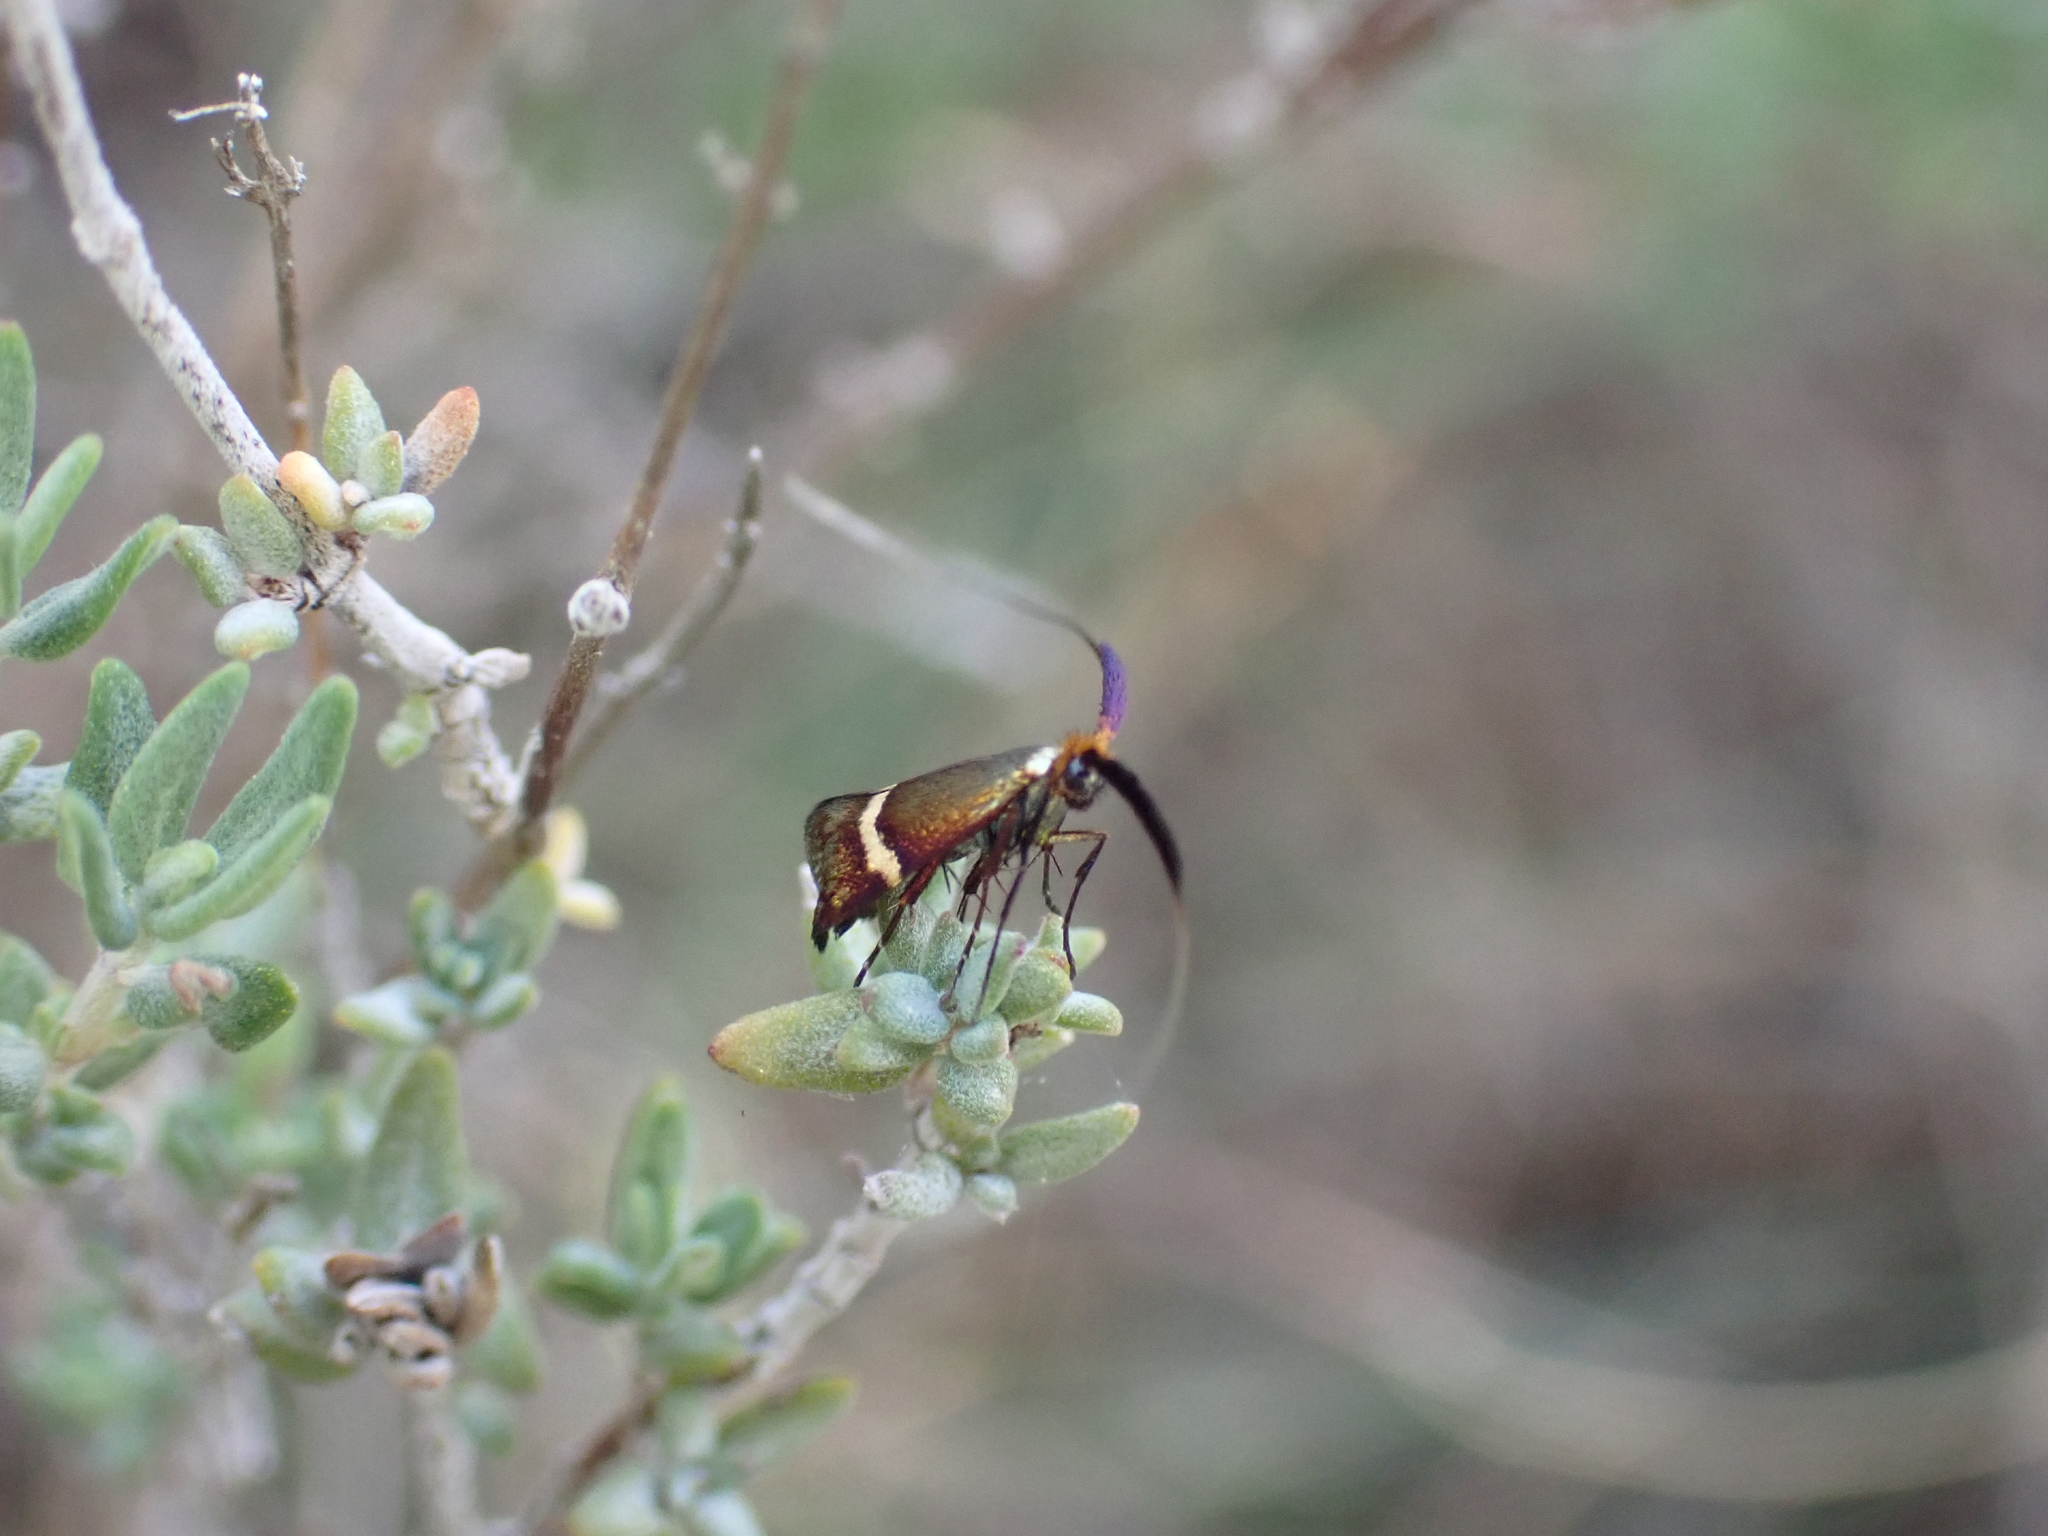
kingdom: Animalia
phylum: Arthropoda
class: Insecta
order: Lepidoptera
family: Adelidae
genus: Adela
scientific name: Adela australis
